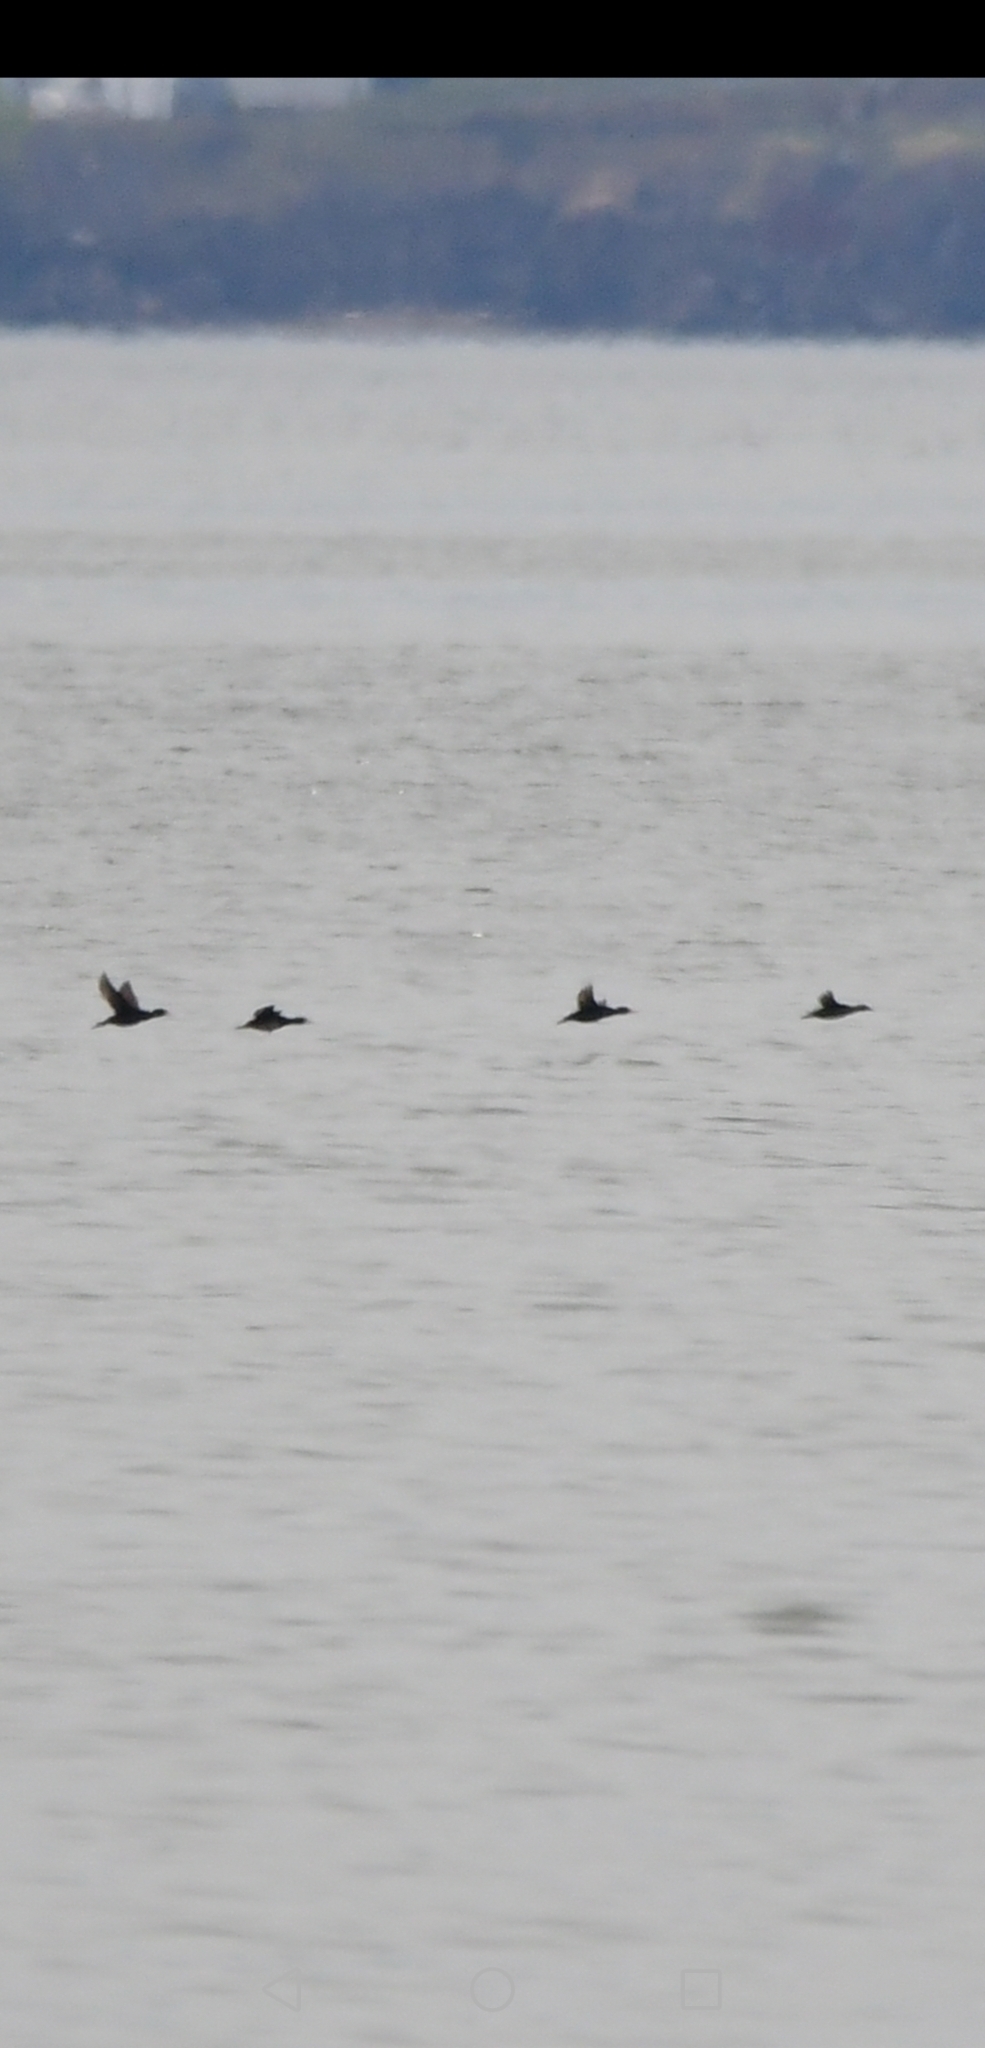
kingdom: Animalia
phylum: Chordata
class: Aves
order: Anseriformes
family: Anatidae
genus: Melanitta
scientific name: Melanitta deglandi
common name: White-winged scoter
